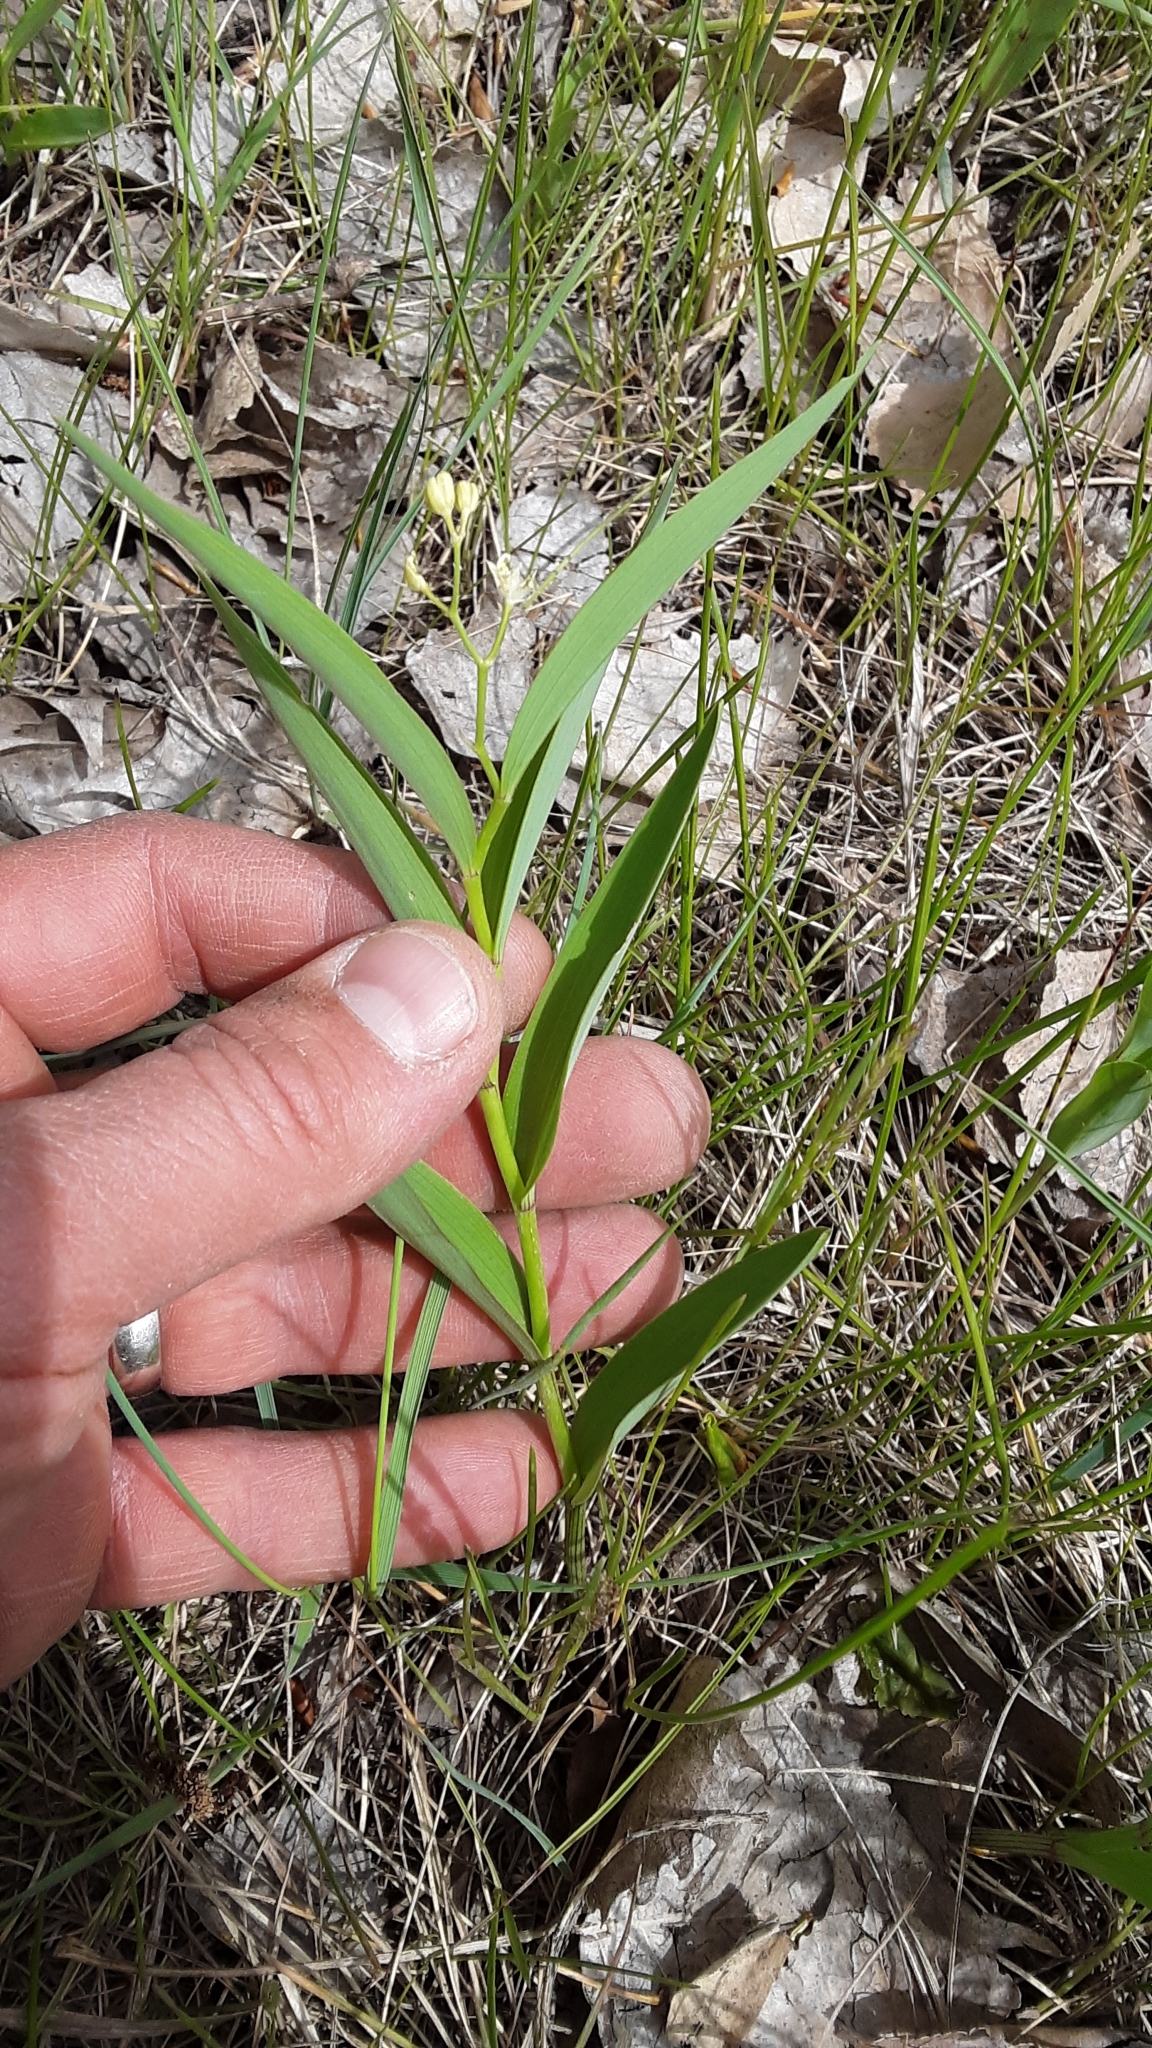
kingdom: Plantae
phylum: Tracheophyta
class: Liliopsida
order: Asparagales
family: Asparagaceae
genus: Maianthemum
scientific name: Maianthemum stellatum
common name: Little false solomon's seal
